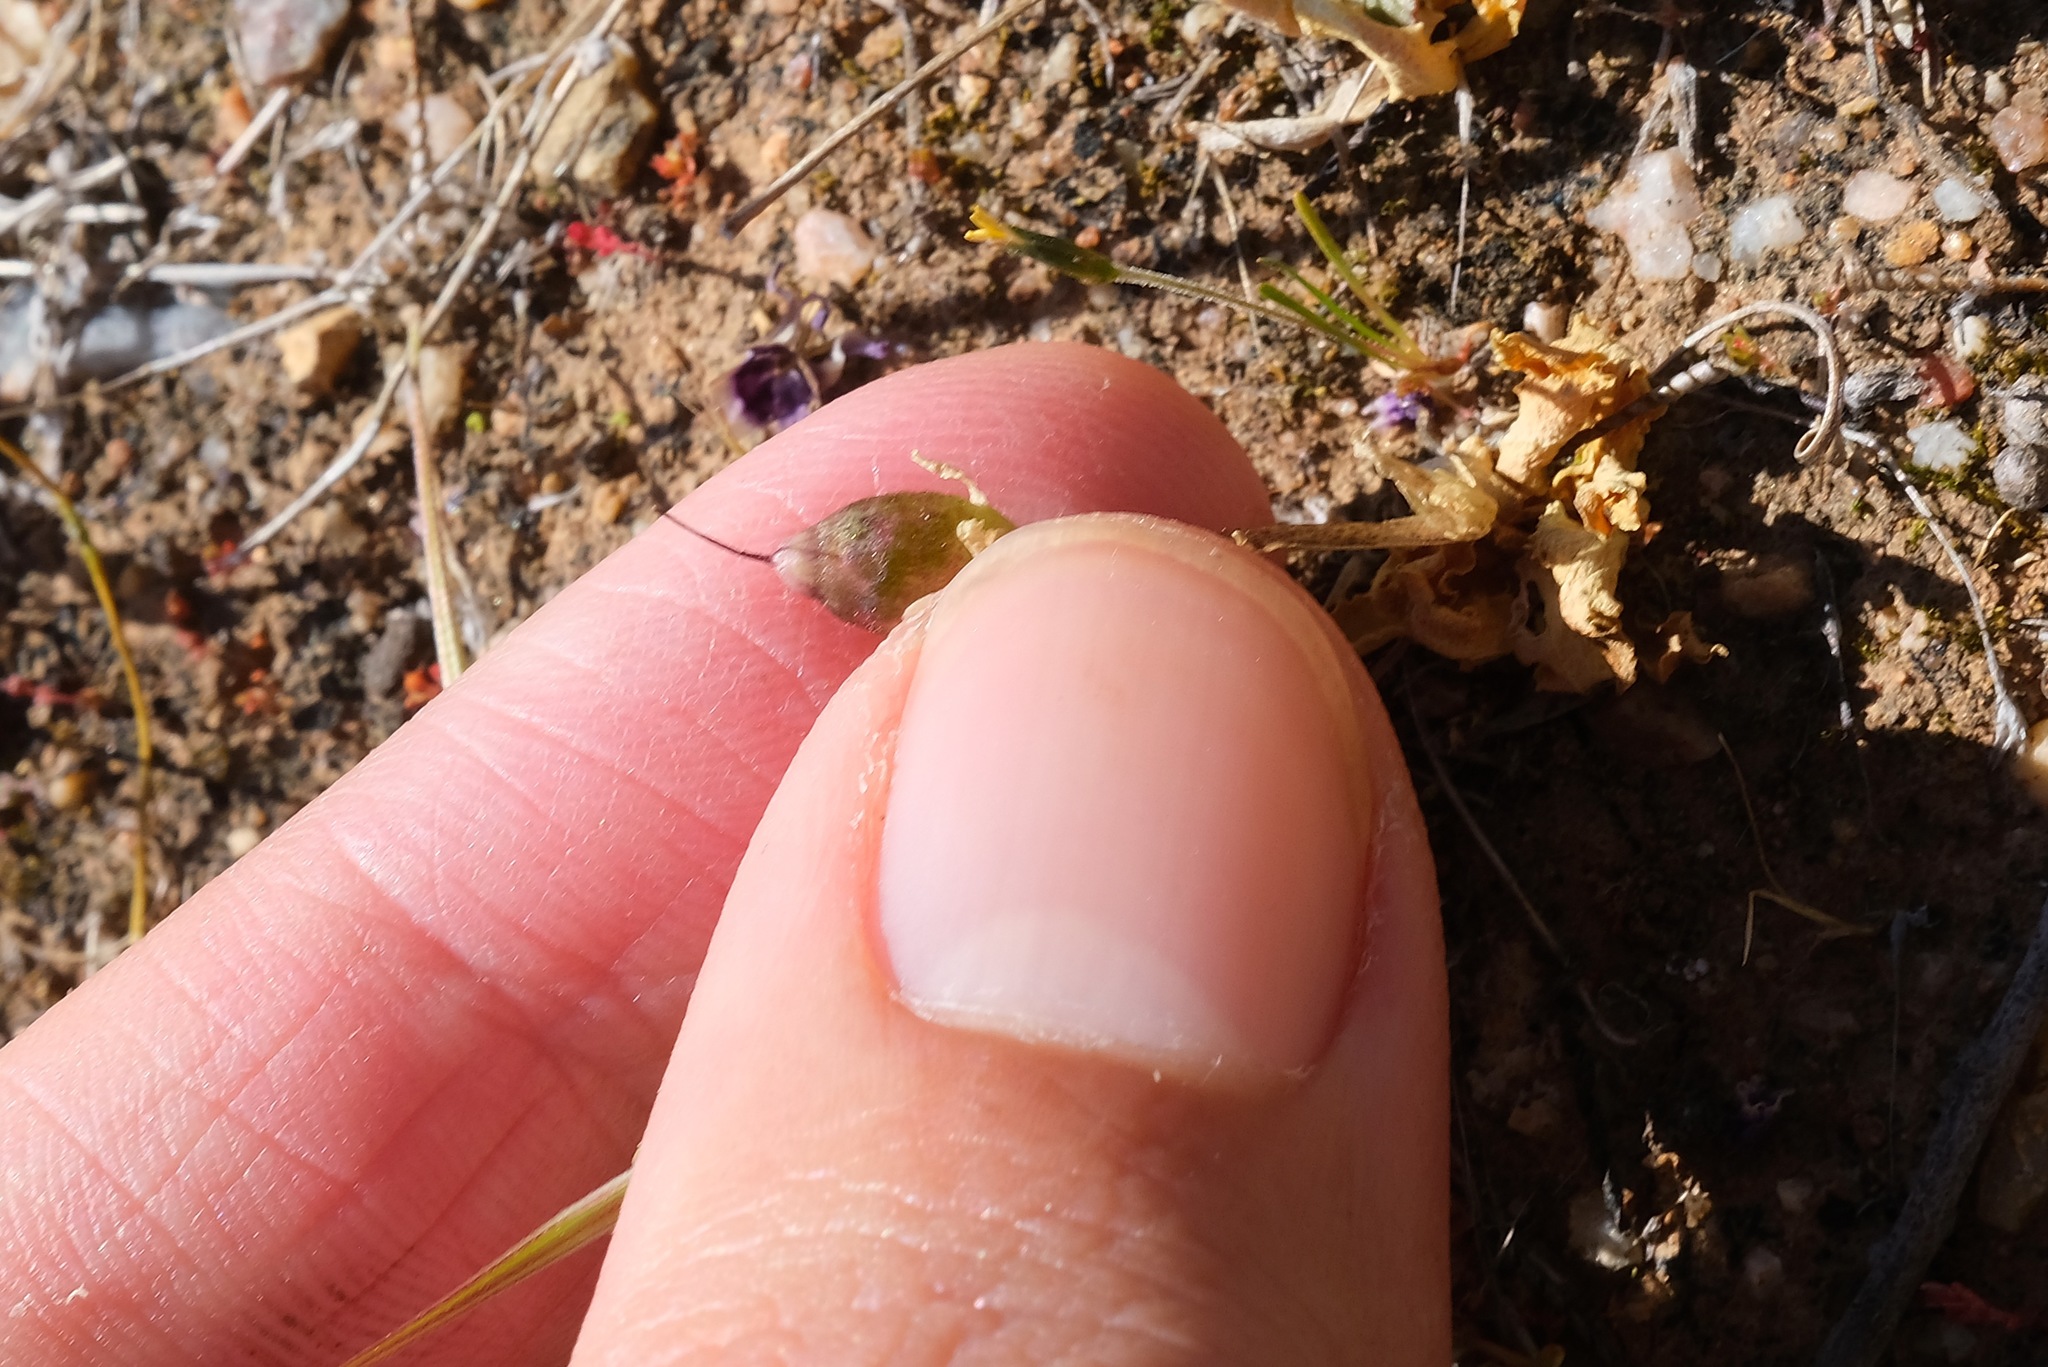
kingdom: Plantae
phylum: Tracheophyta
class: Magnoliopsida
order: Ericales
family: Primulaceae
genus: Dodecatheon
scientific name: Dodecatheon clevelandii
